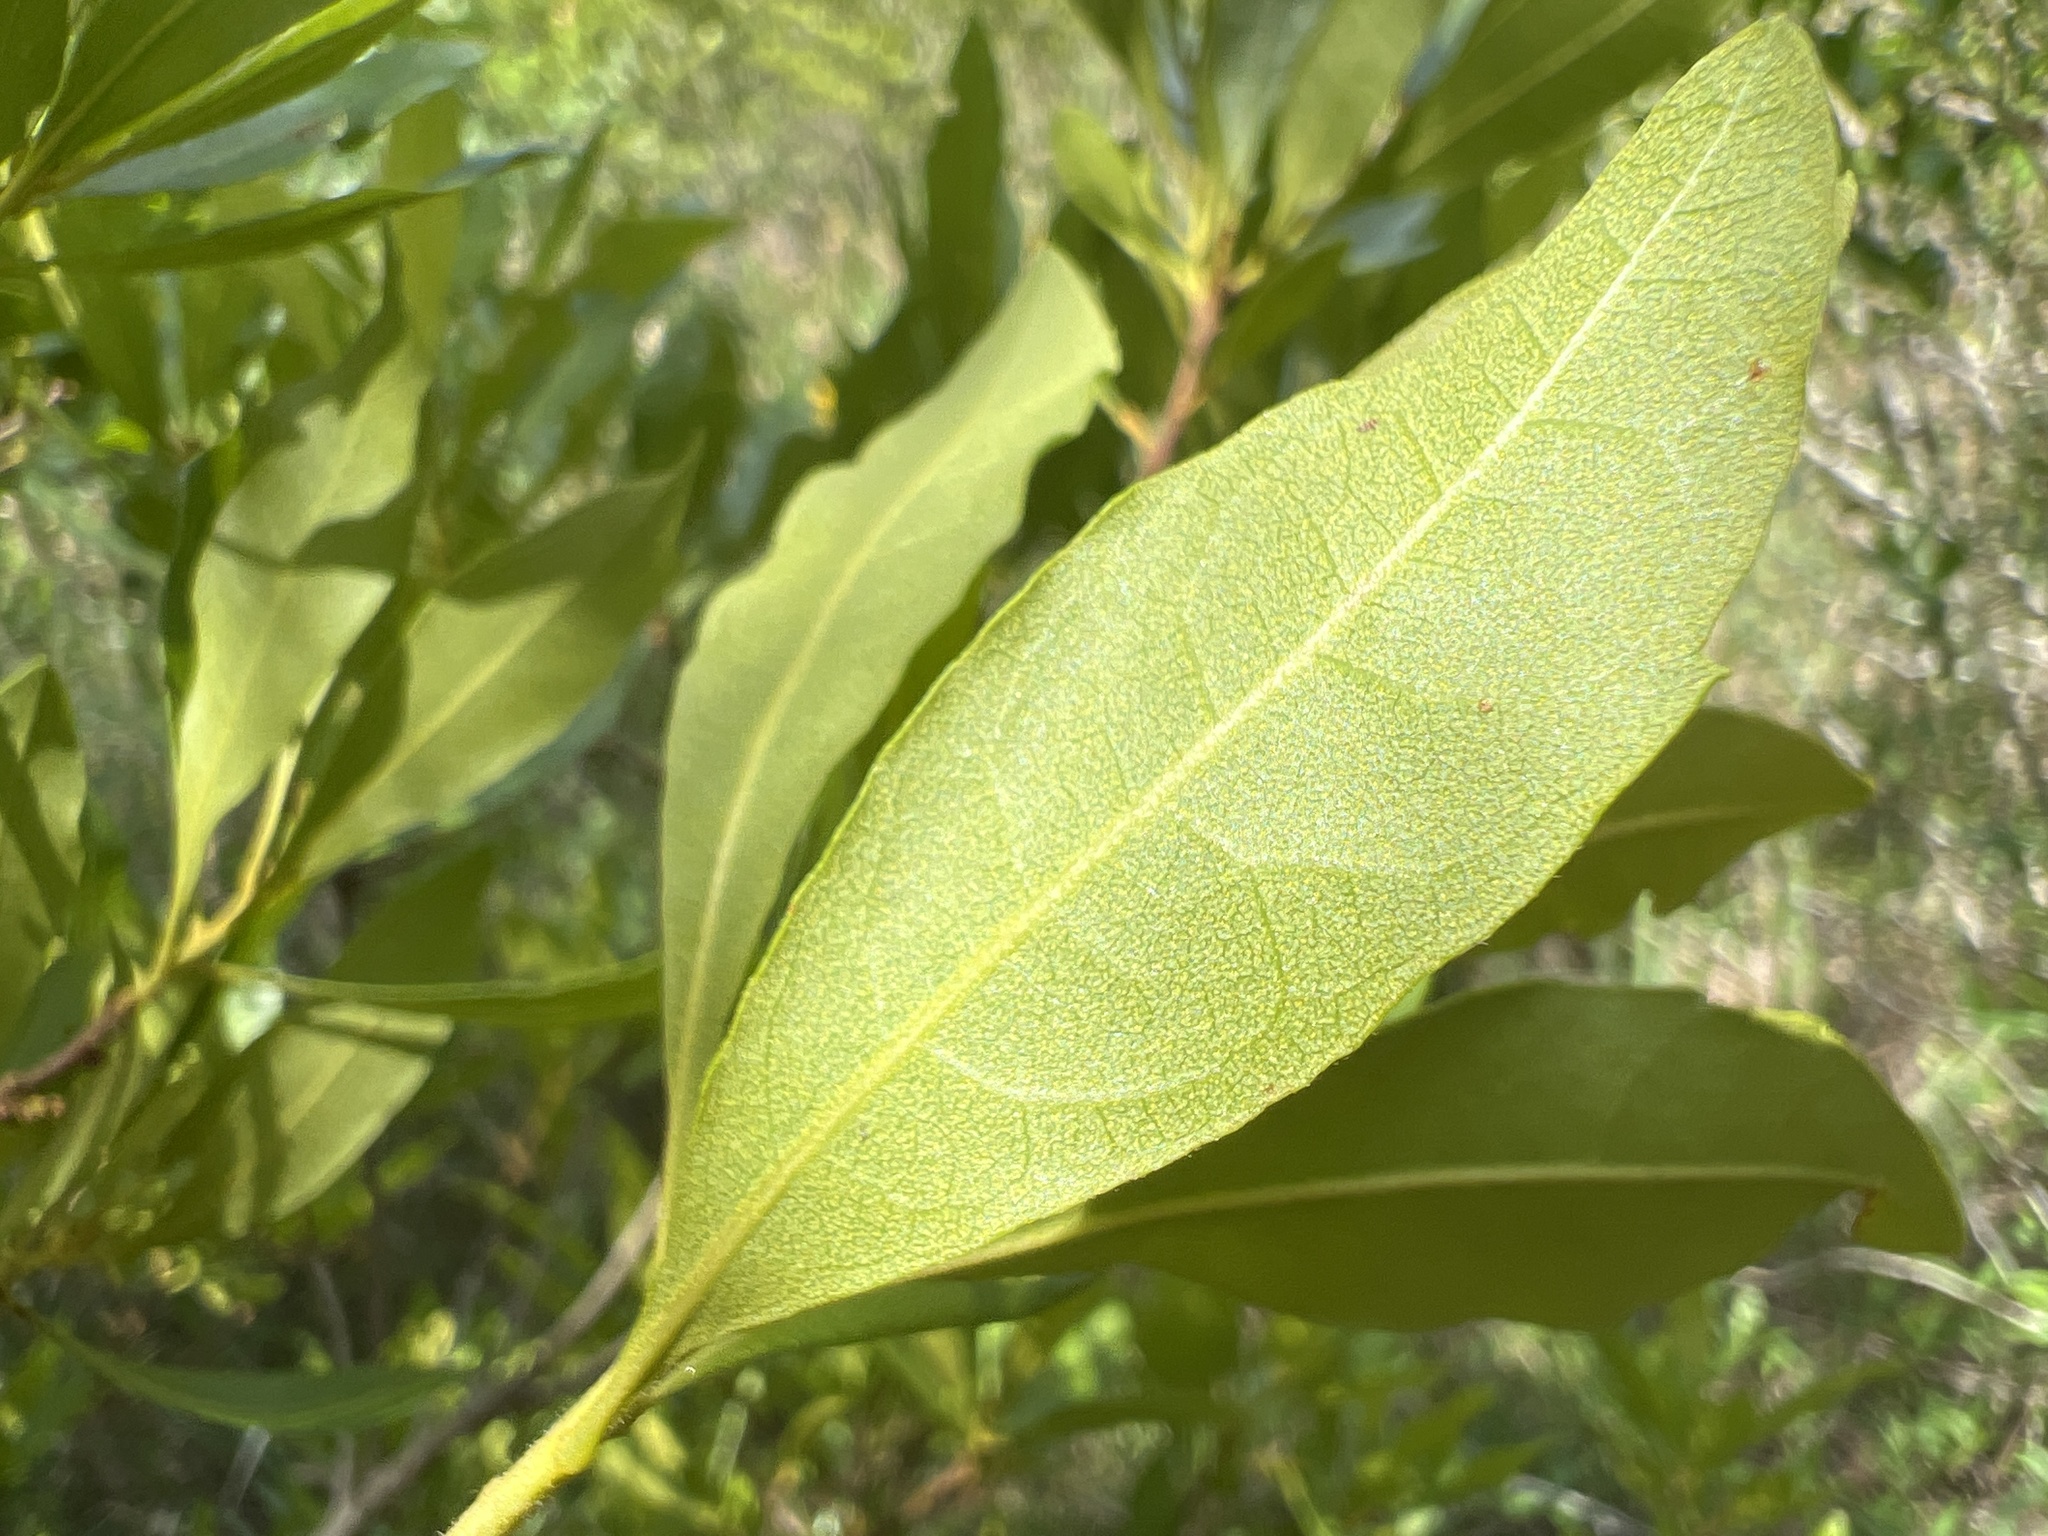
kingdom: Plantae
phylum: Tracheophyta
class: Magnoliopsida
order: Fagales
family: Myricaceae
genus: Morella
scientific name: Morella cerifera
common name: Wax myrtle
